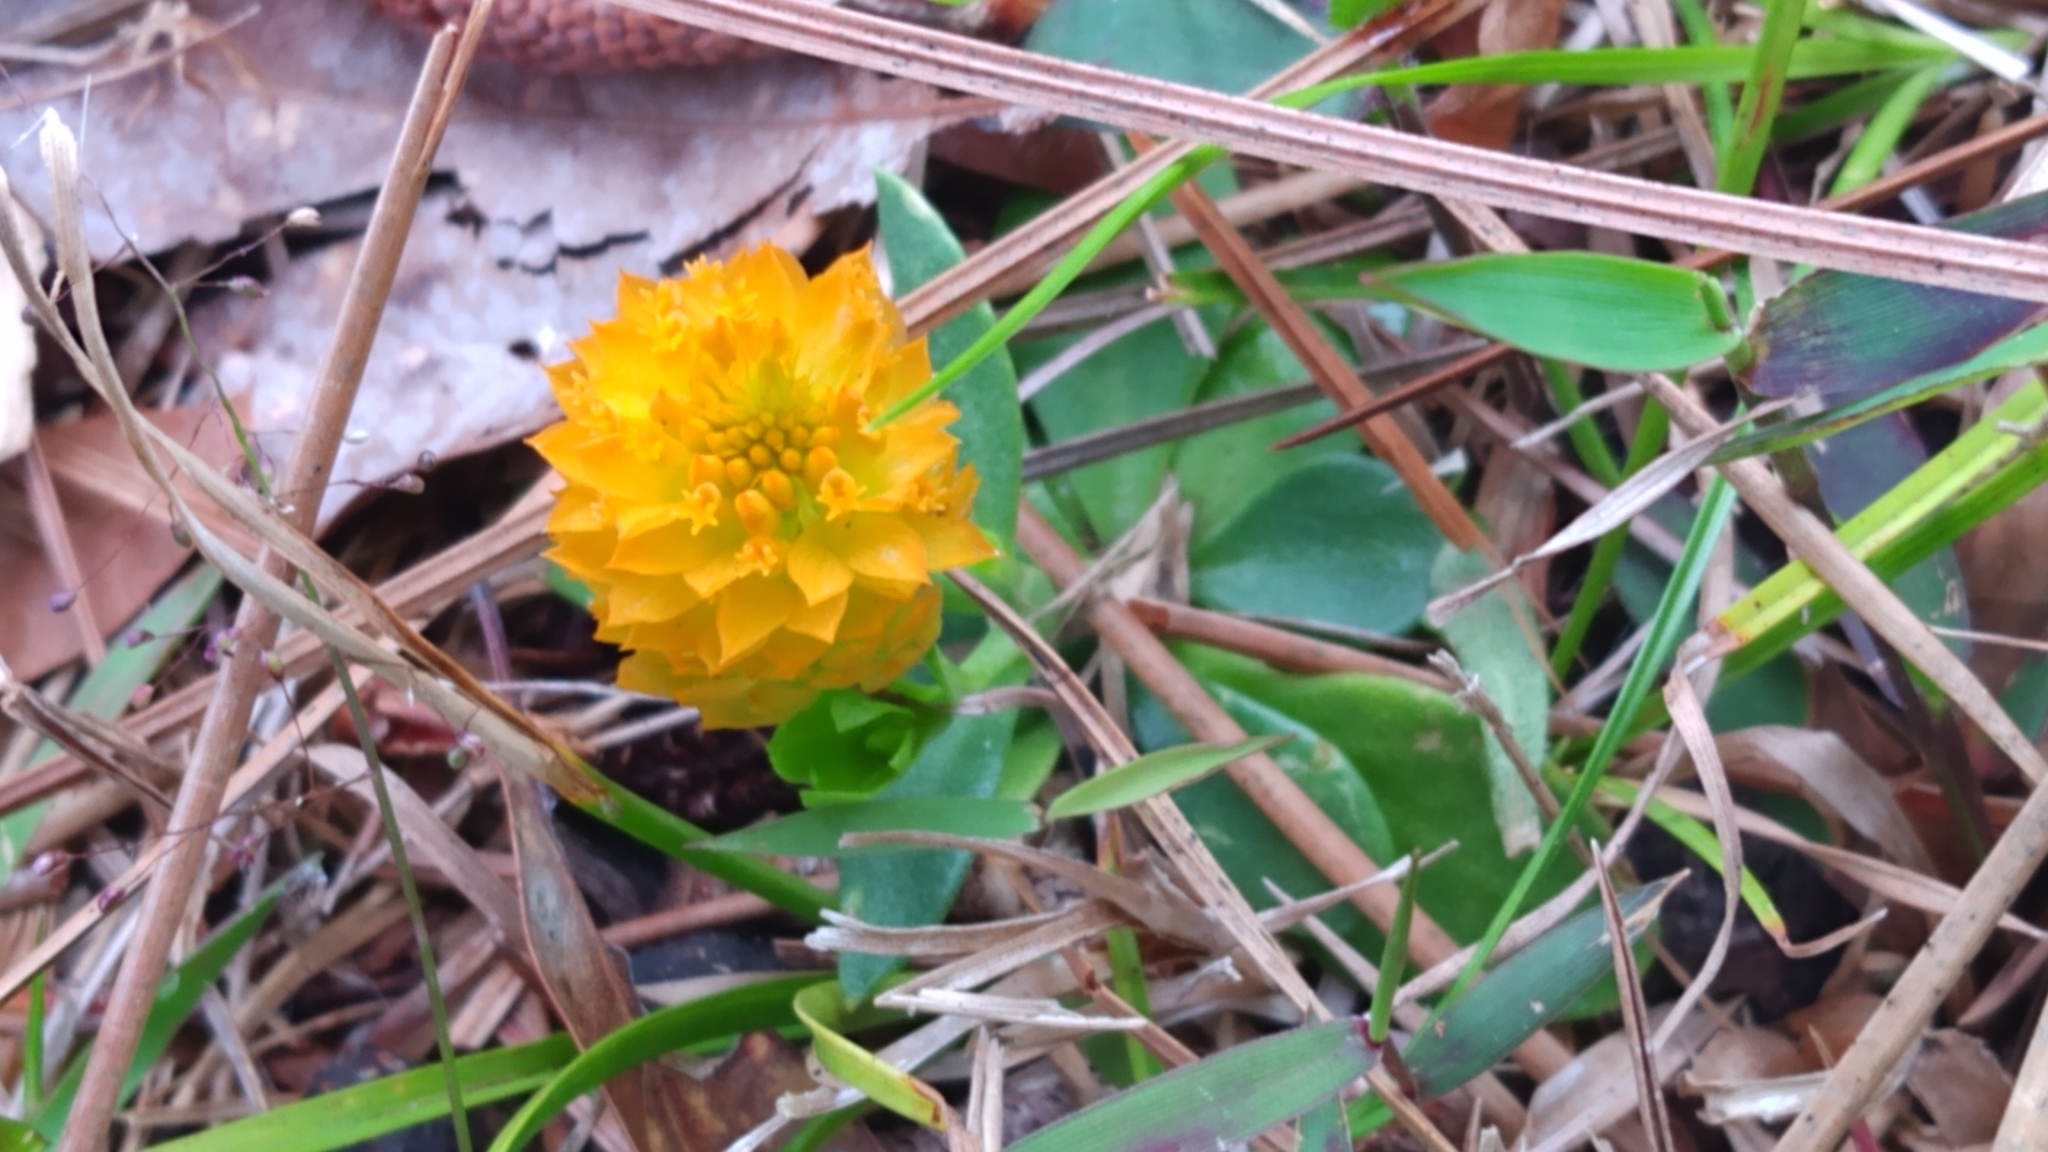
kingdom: Plantae
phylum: Tracheophyta
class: Magnoliopsida
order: Fabales
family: Polygalaceae
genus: Polygala
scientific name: Polygala lutea
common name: Orange milkwort
